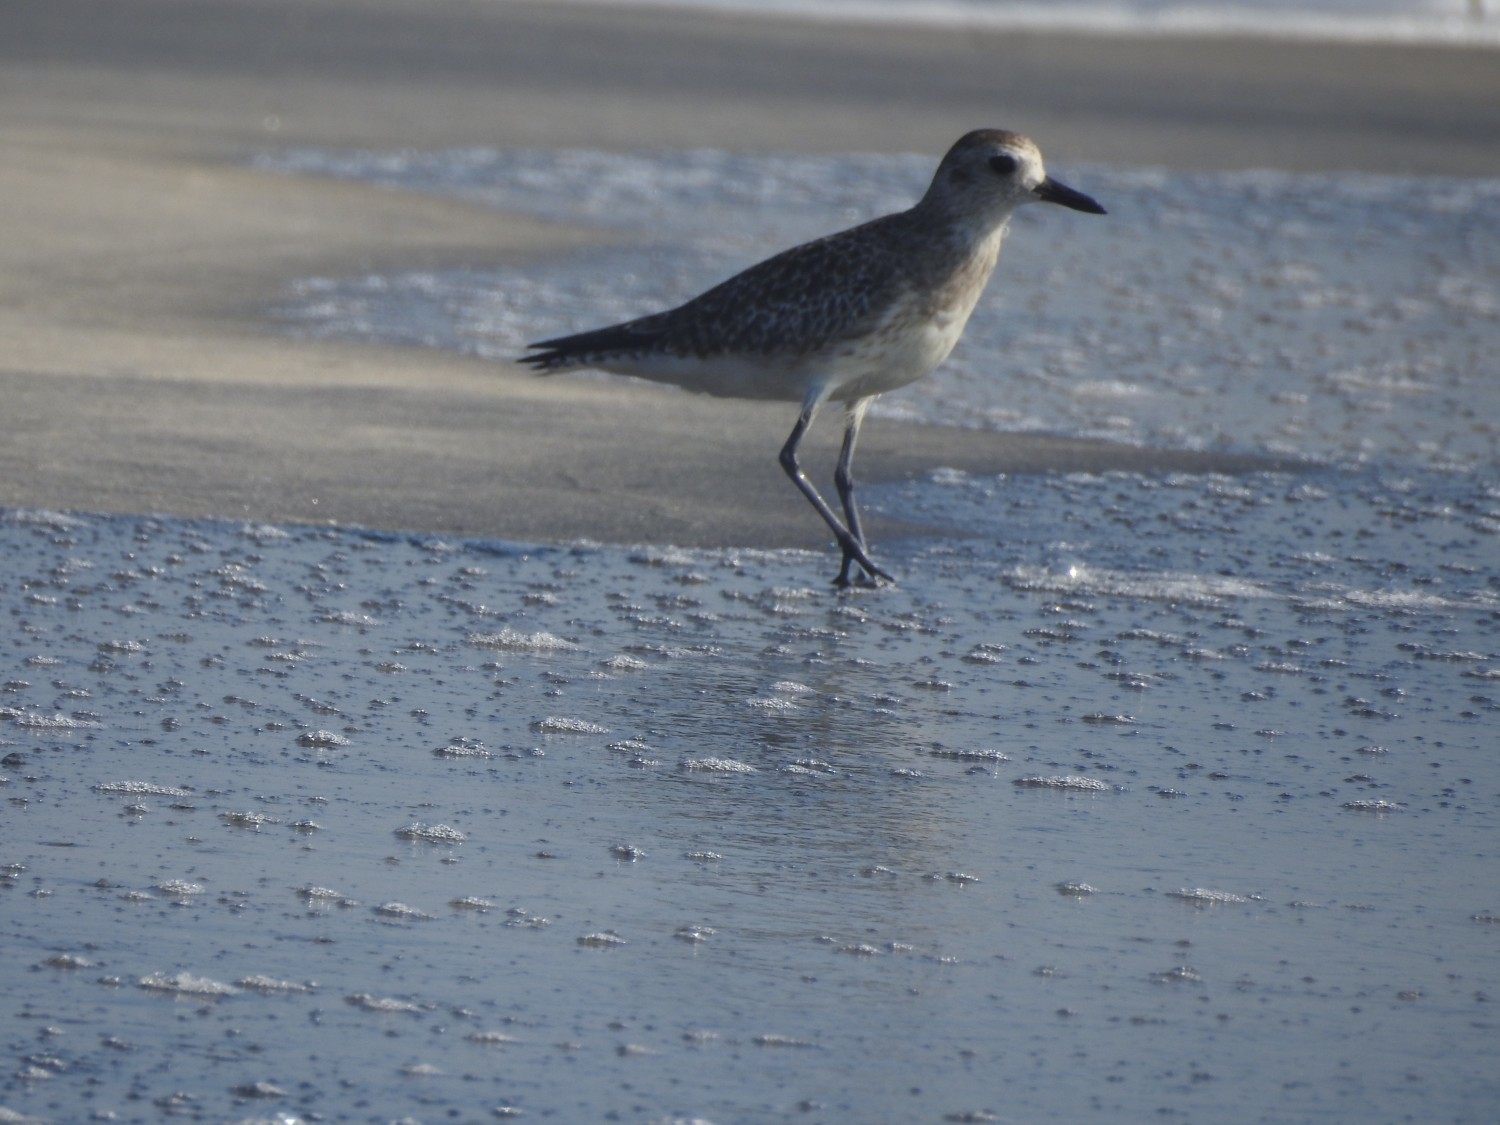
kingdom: Animalia
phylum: Chordata
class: Aves
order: Charadriiformes
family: Charadriidae
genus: Pluvialis
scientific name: Pluvialis squatarola
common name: Grey plover
